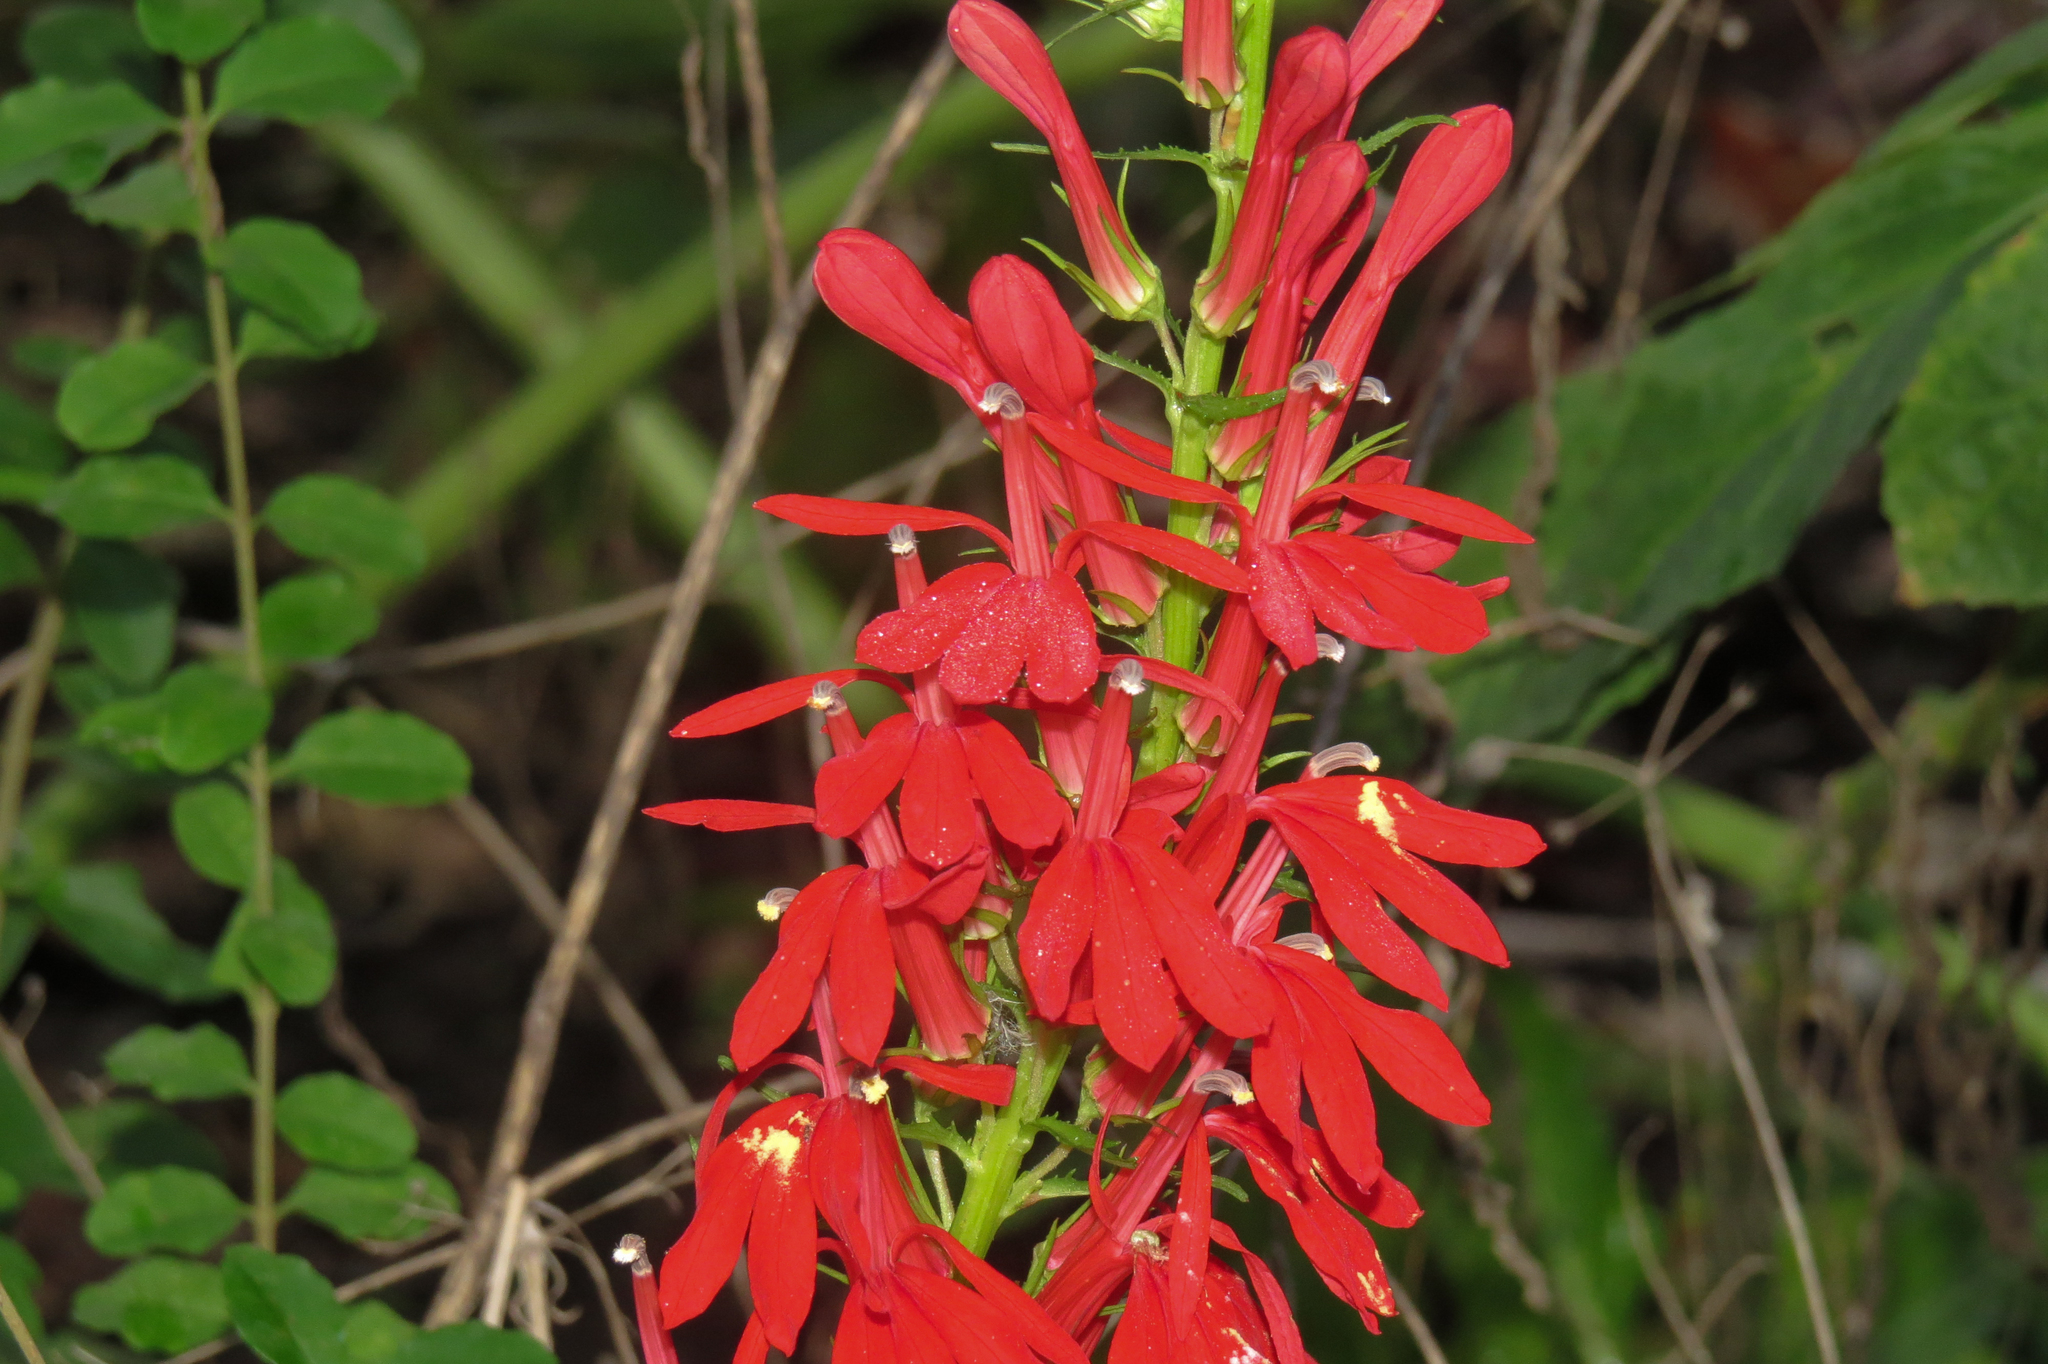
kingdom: Plantae
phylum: Tracheophyta
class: Magnoliopsida
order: Asterales
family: Campanulaceae
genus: Lobelia
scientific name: Lobelia cardinalis
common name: Cardinal flower
